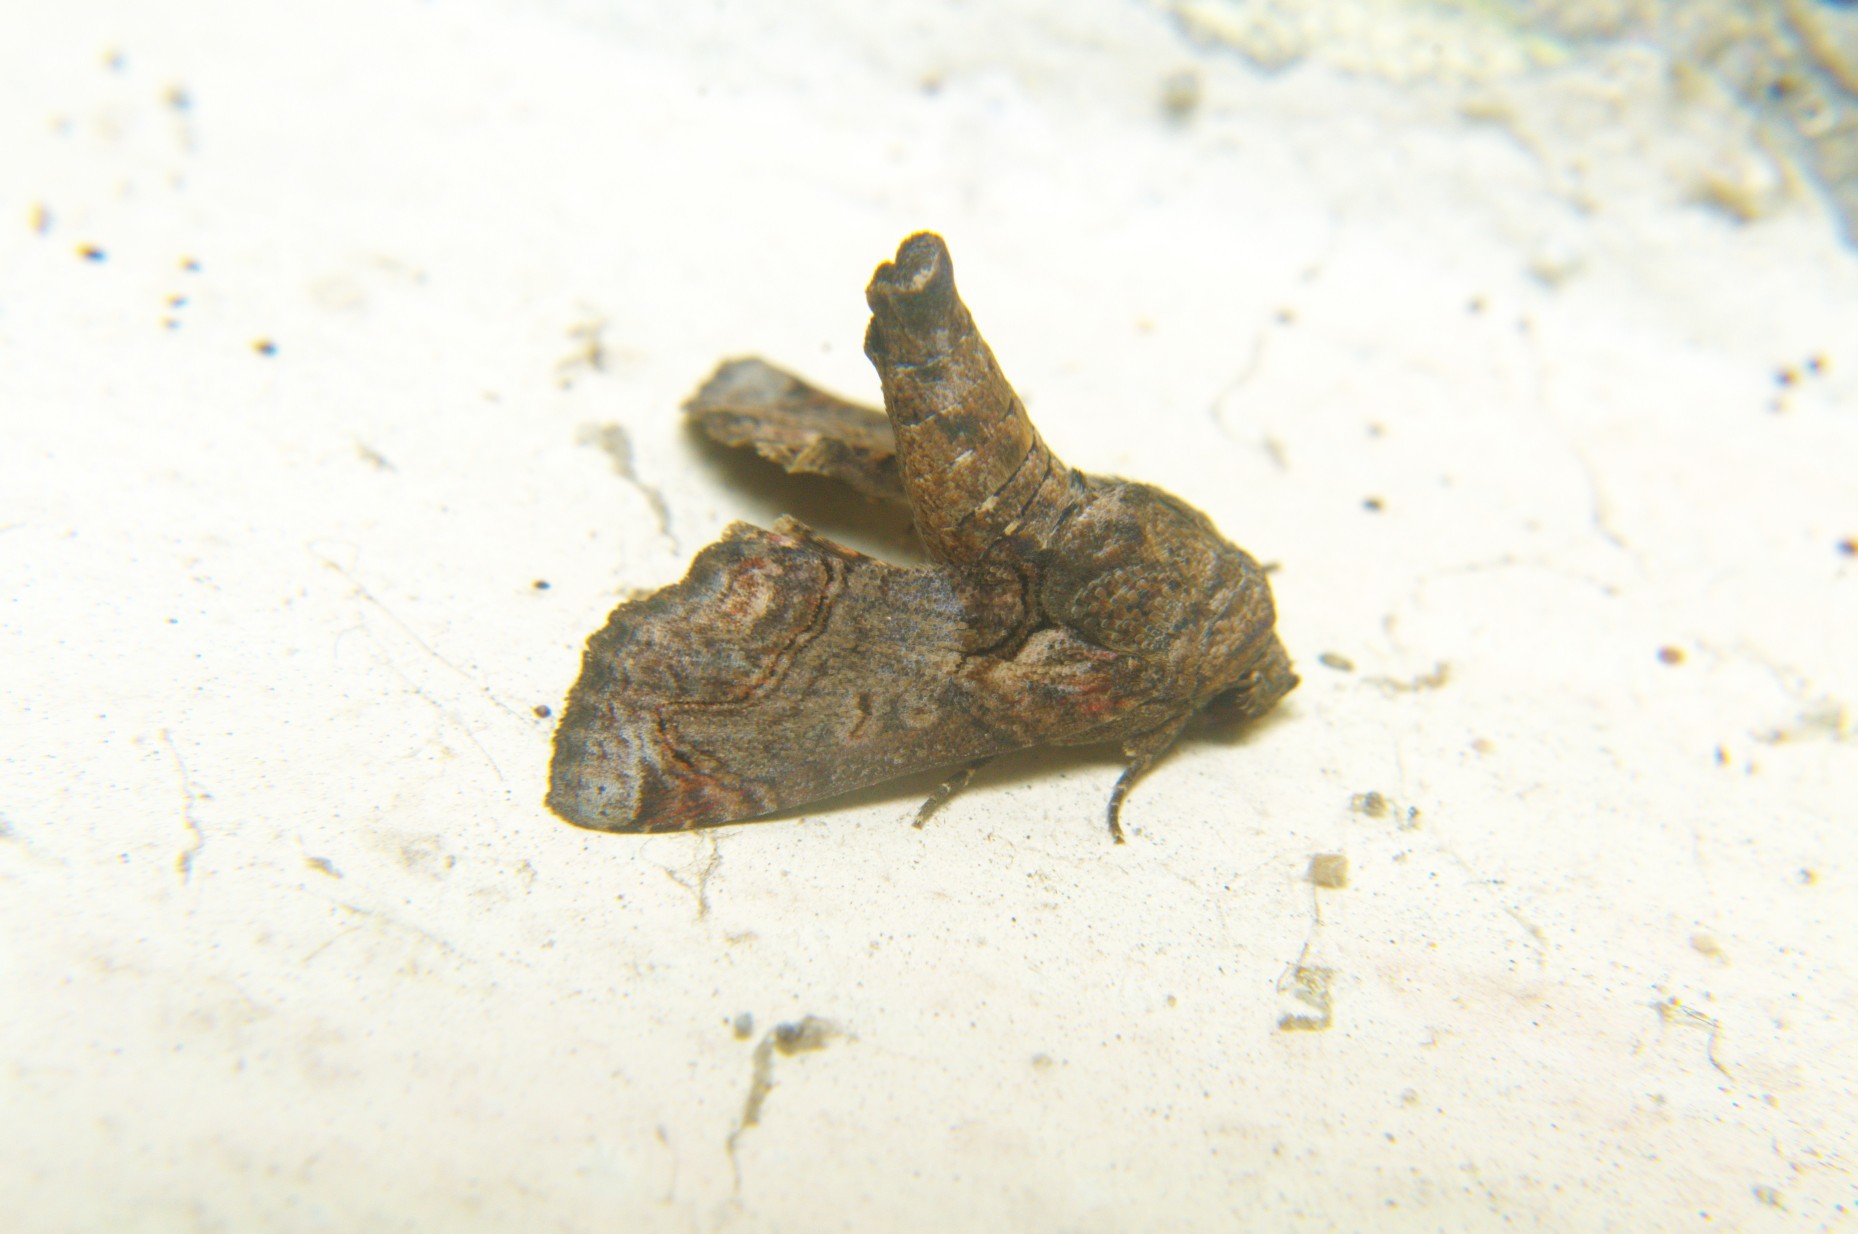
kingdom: Animalia
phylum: Arthropoda
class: Insecta
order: Lepidoptera
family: Notodontidae
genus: Stauropus
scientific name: Stauropus sikkimensis
